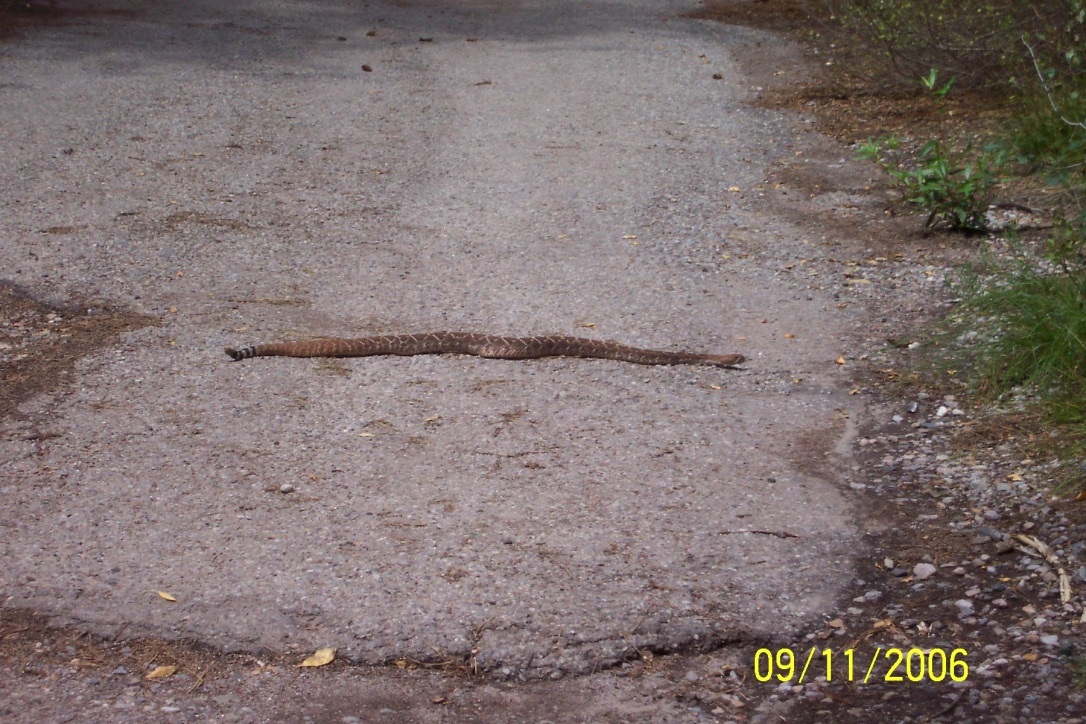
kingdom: Animalia
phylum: Chordata
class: Squamata
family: Viperidae
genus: Crotalus
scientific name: Crotalus atrox
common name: Western diamond-backed rattlesnake
